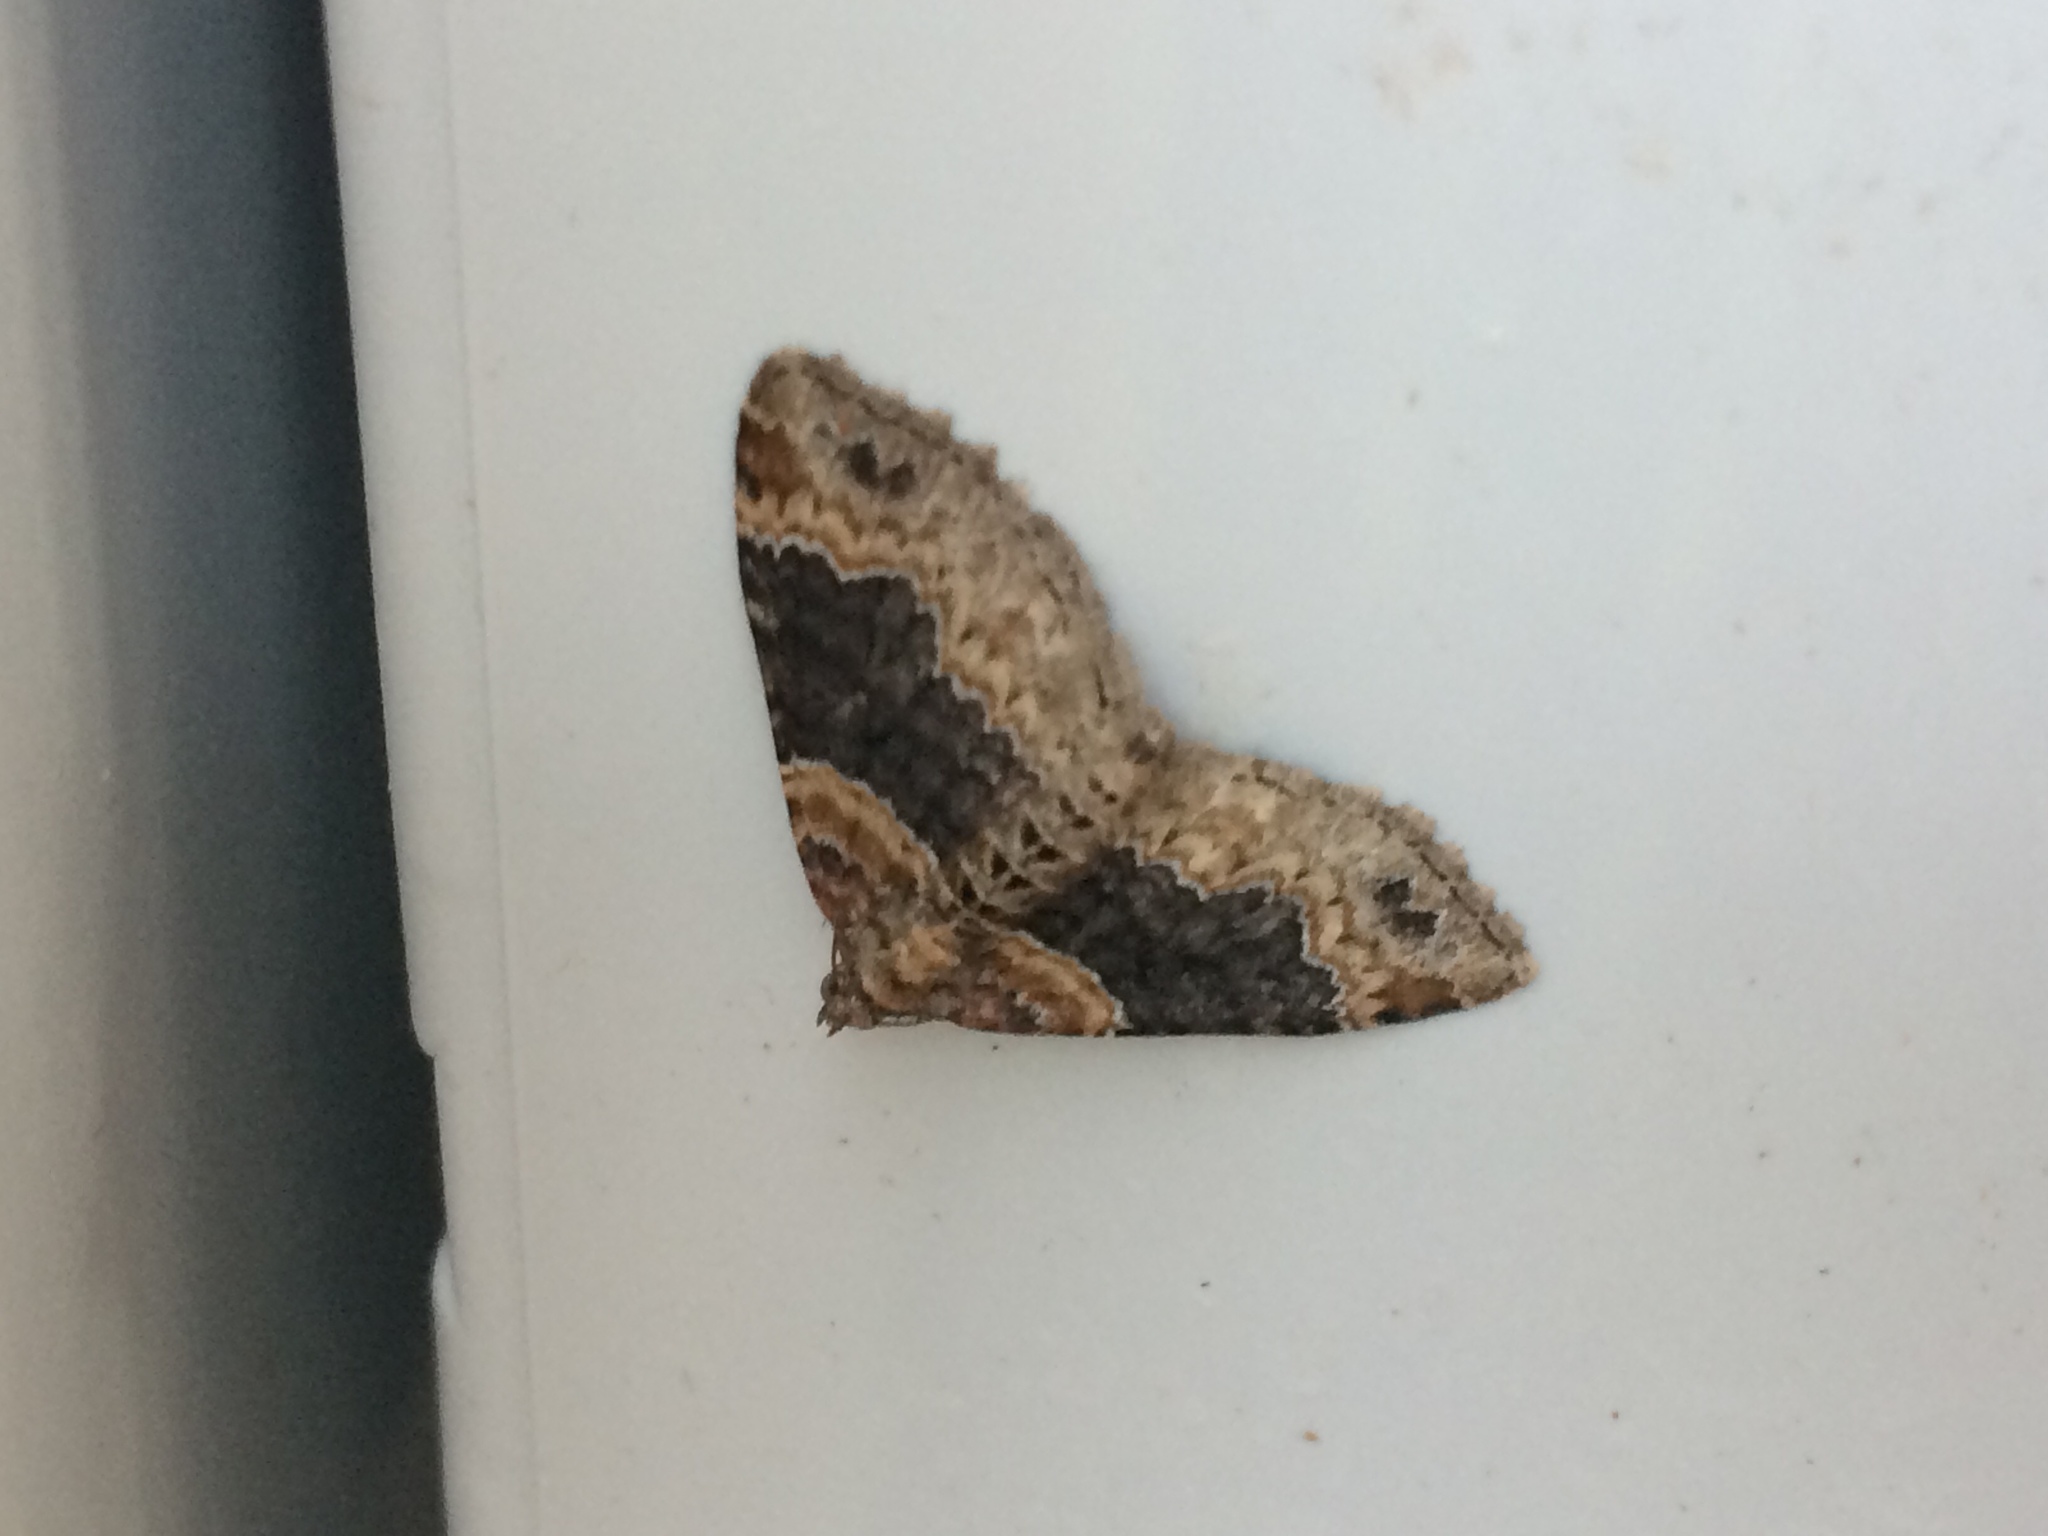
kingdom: Animalia
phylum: Arthropoda
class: Insecta
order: Lepidoptera
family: Geometridae
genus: Xanthorhoe
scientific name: Xanthorhoe ferrugata
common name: Dark-barred twin-spot carpet
